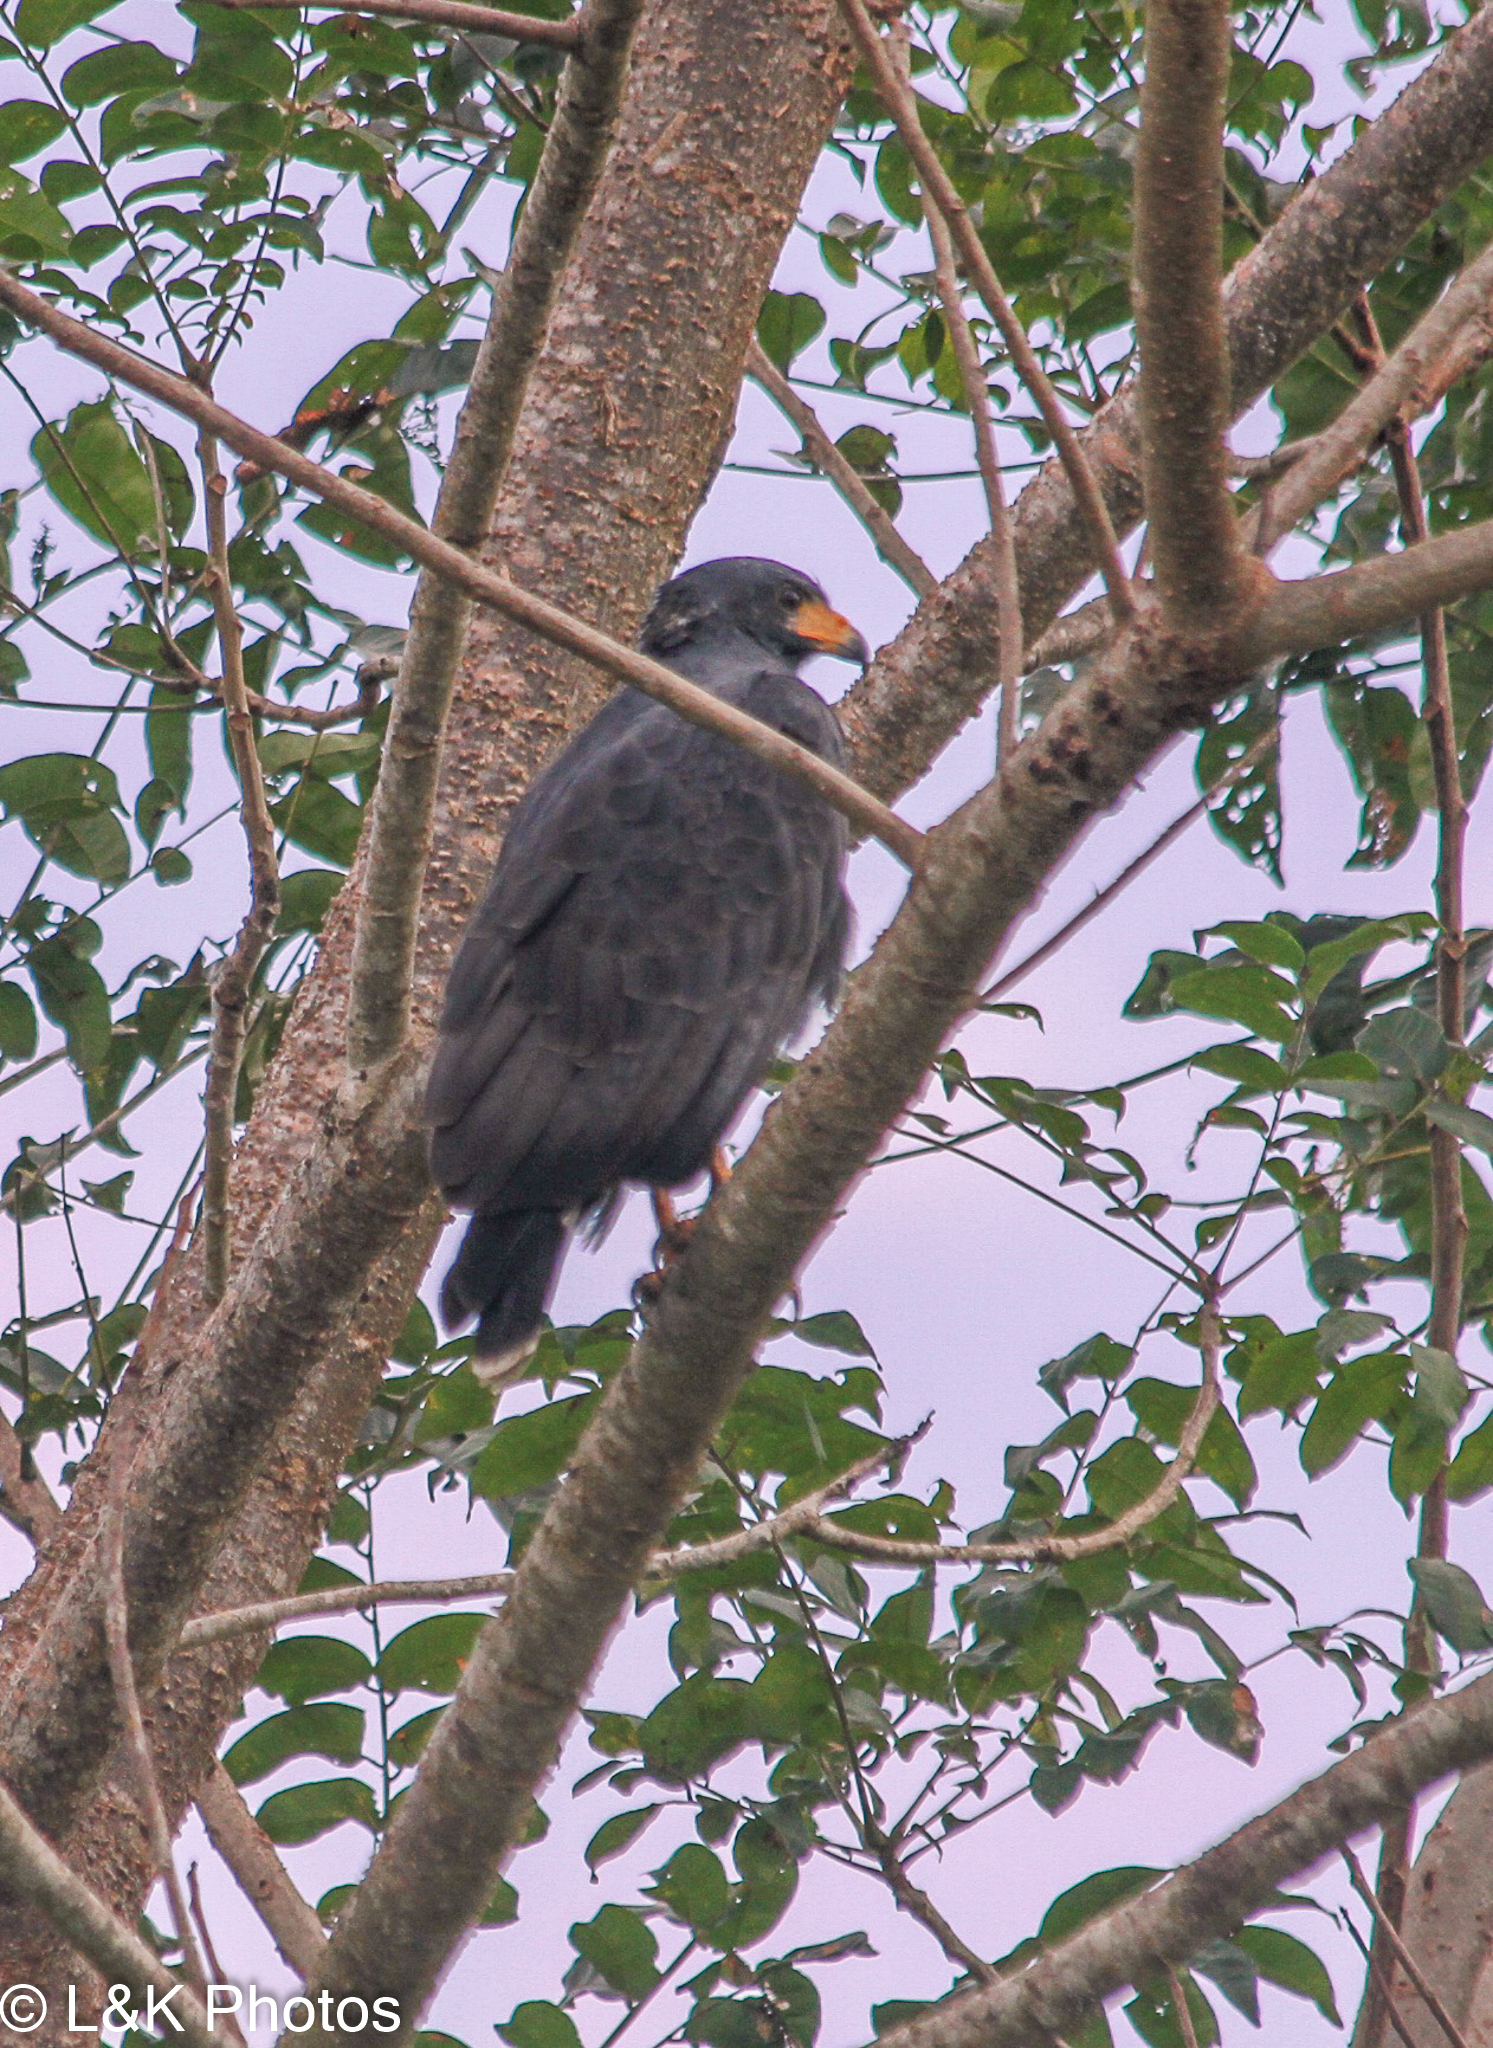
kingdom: Animalia
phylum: Chordata
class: Aves
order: Accipitriformes
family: Accipitridae
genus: Buteogallus
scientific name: Buteogallus anthracinus
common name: Common black hawk
